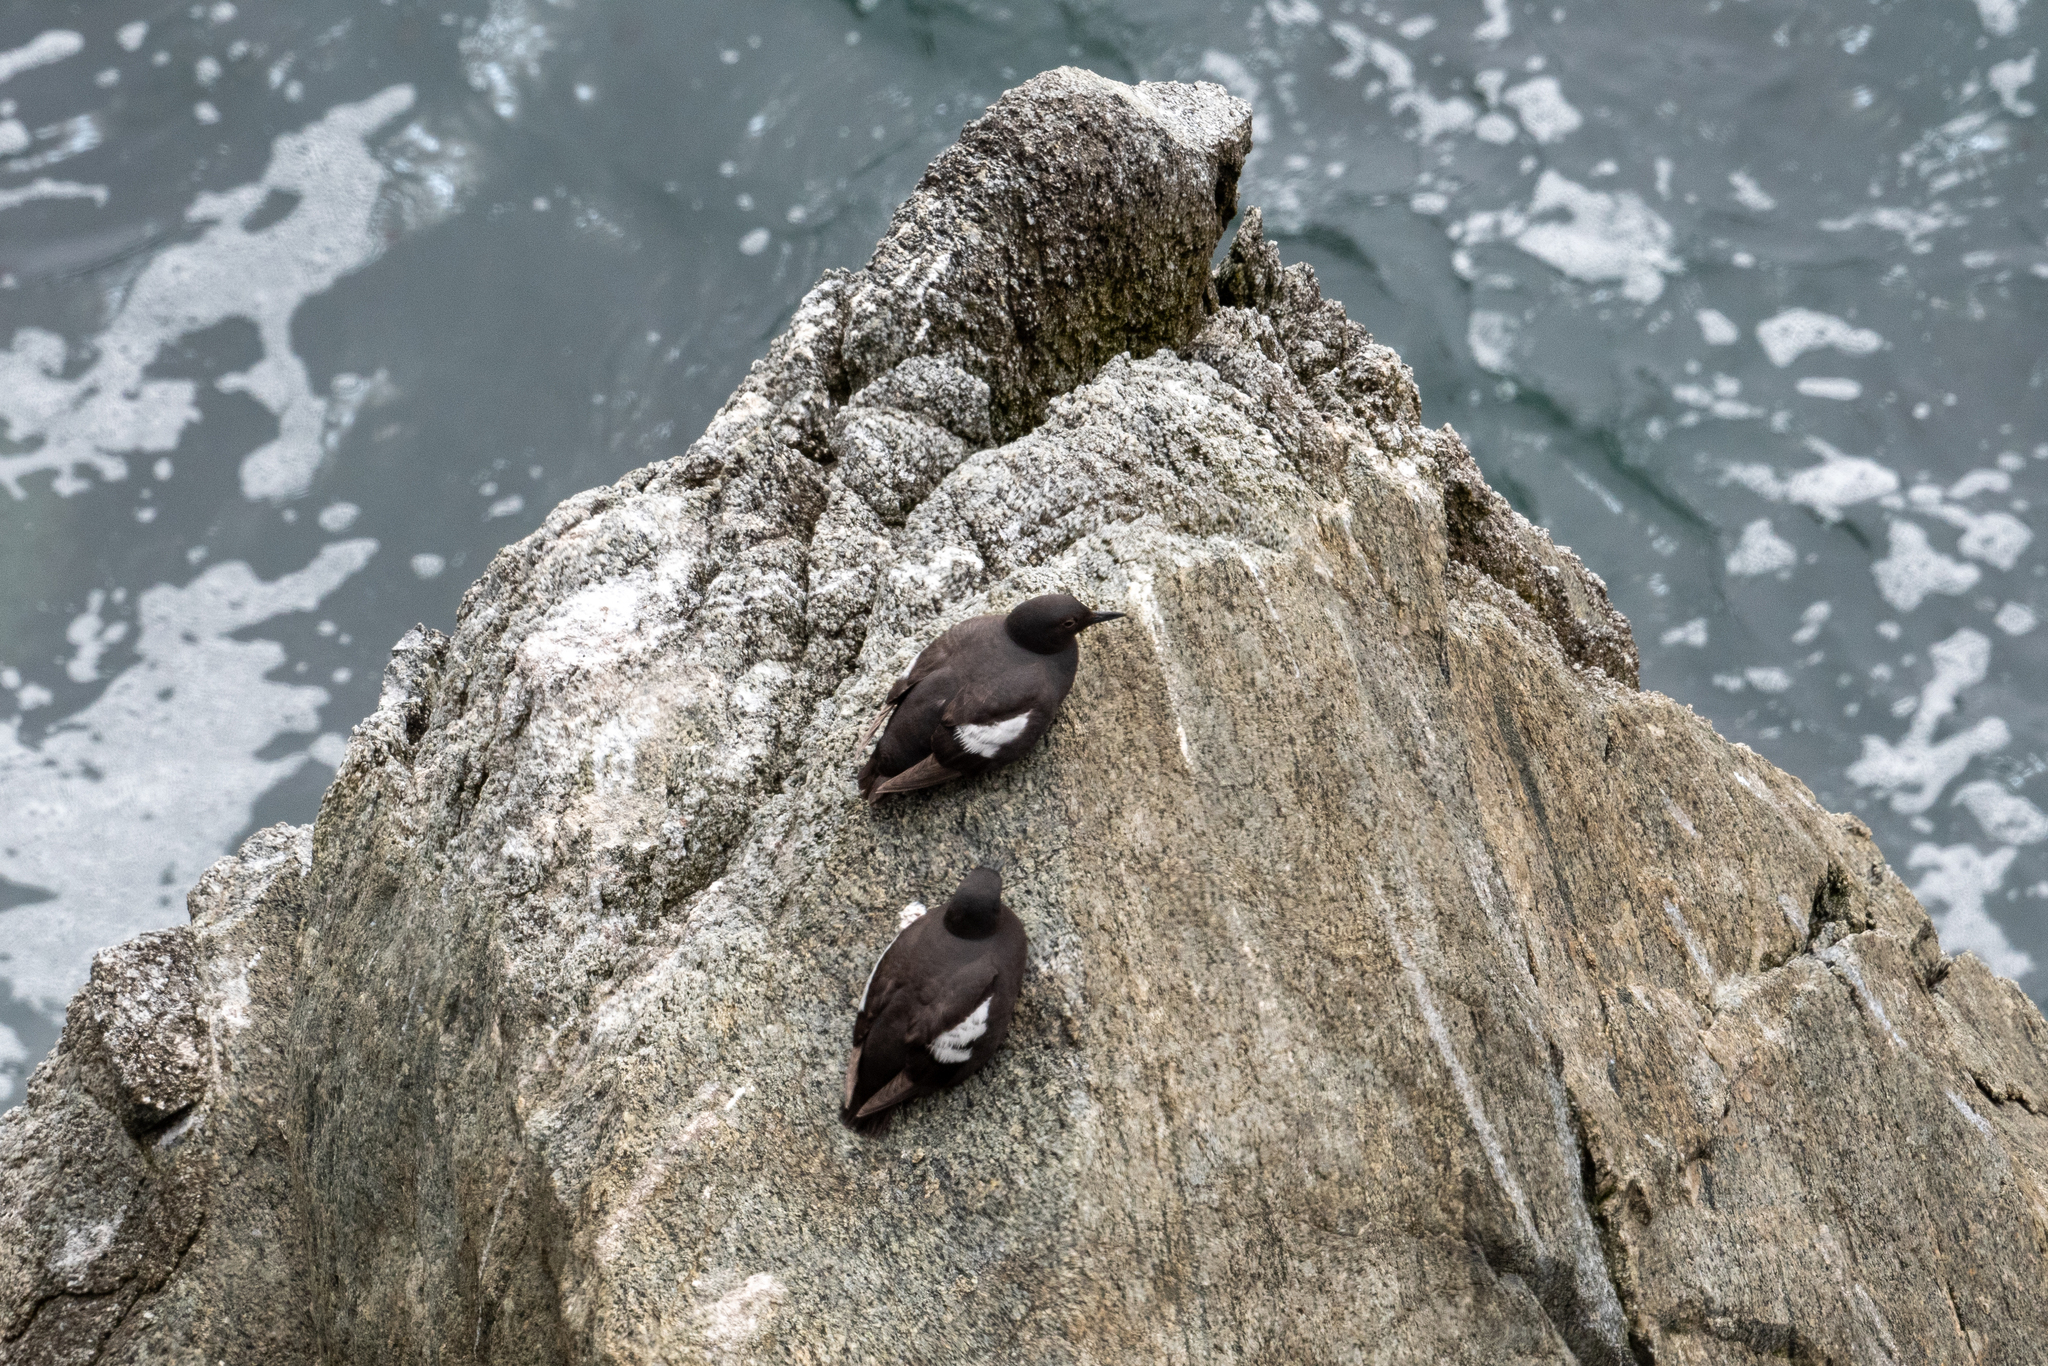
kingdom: Animalia
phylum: Chordata
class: Aves
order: Charadriiformes
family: Alcidae
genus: Cepphus
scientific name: Cepphus columba
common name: Pigeon guillemot
